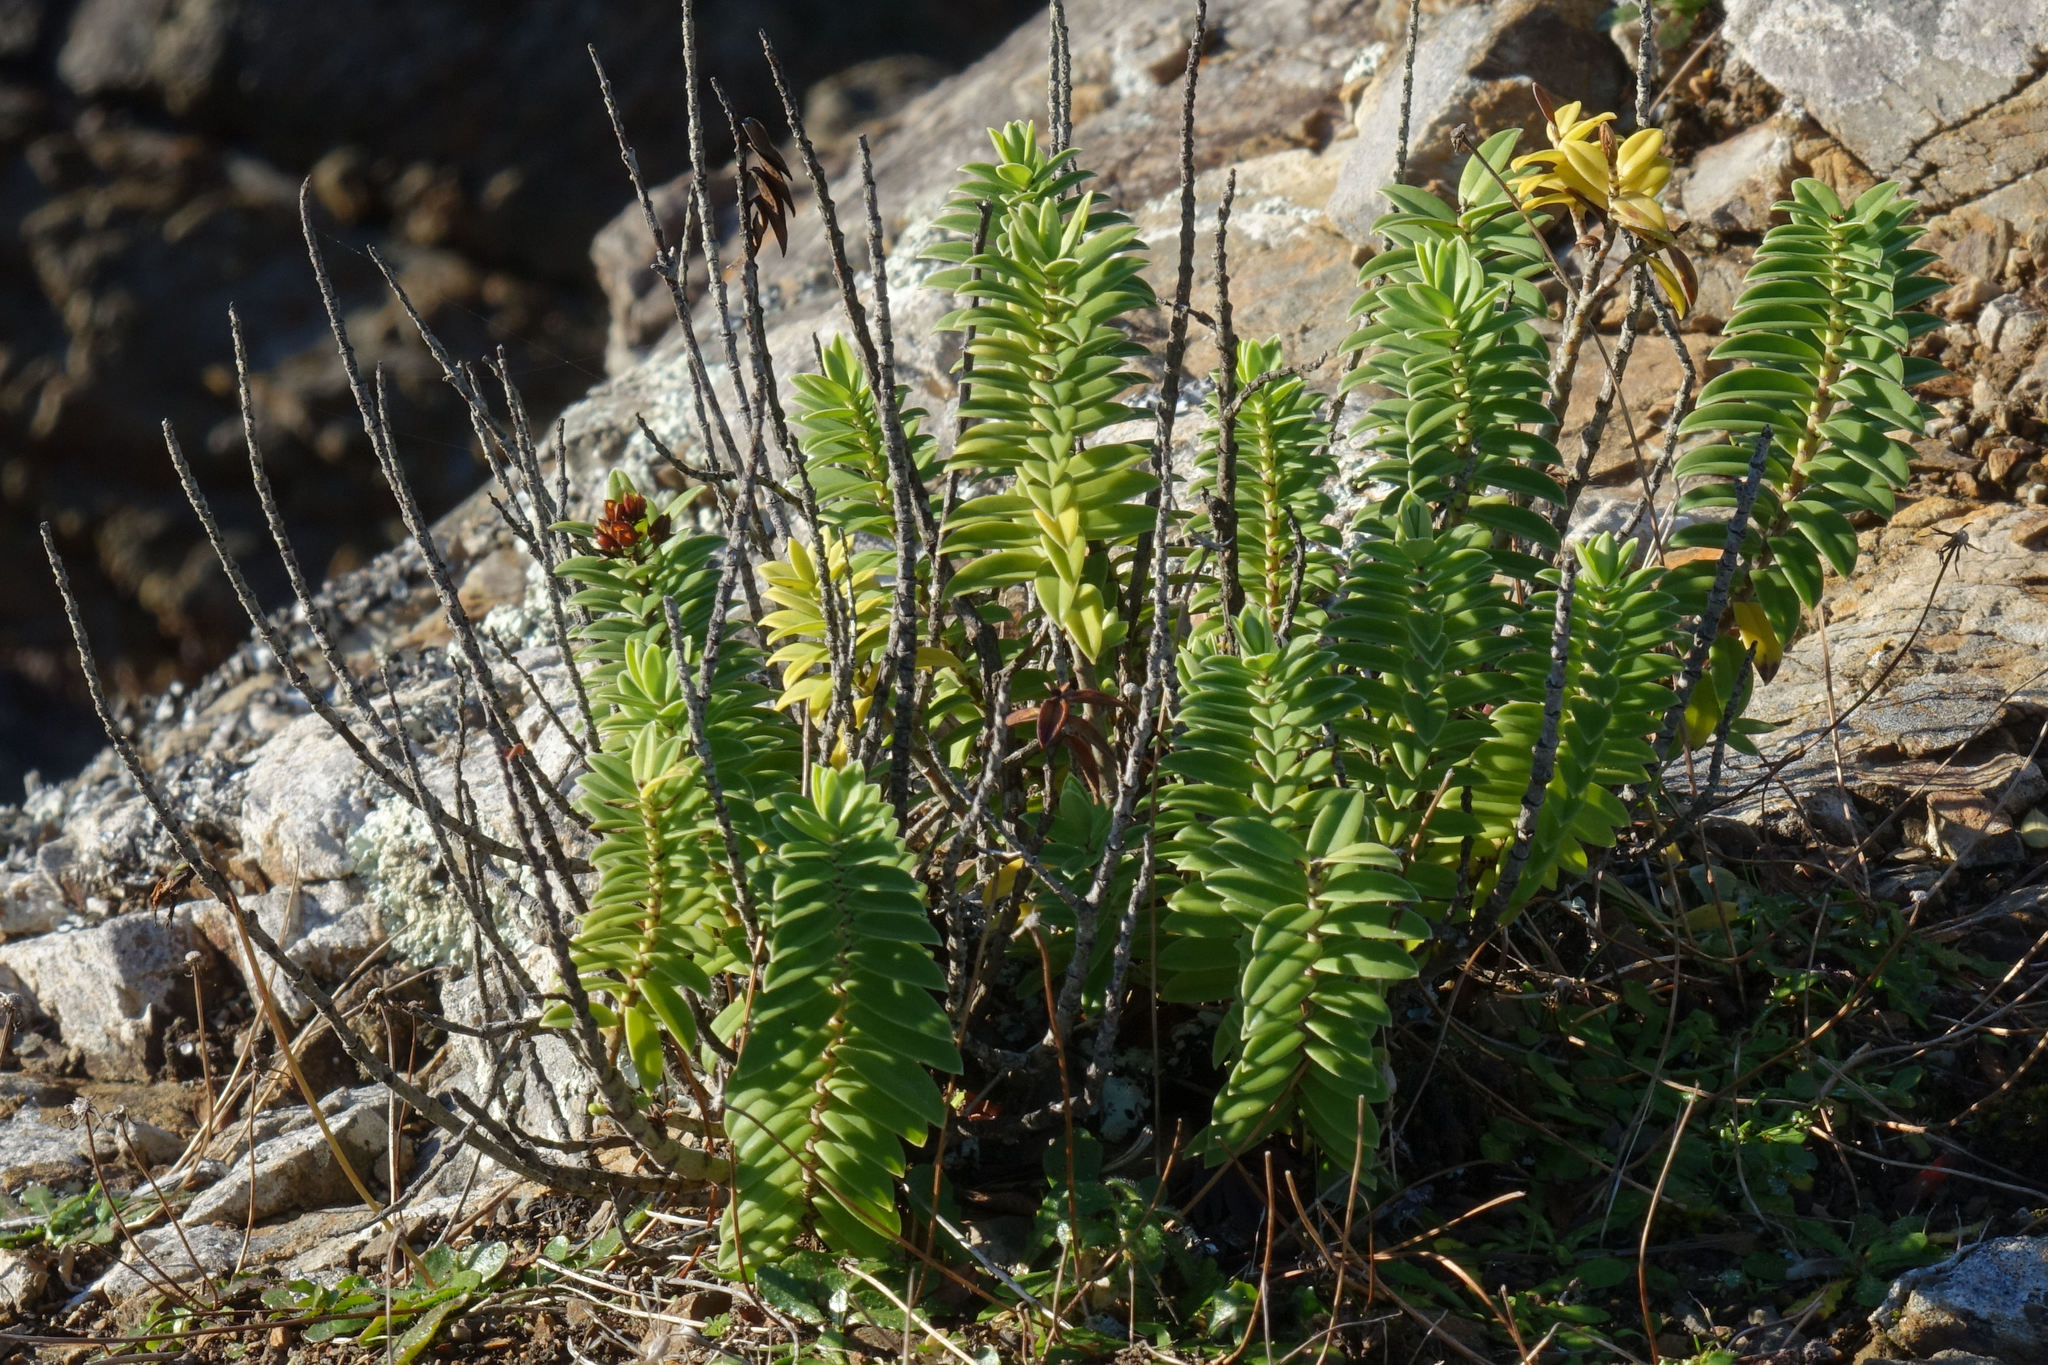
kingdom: Plantae
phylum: Tracheophyta
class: Magnoliopsida
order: Lamiales
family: Plantaginaceae
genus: Veronica
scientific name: Veronica elliptica
